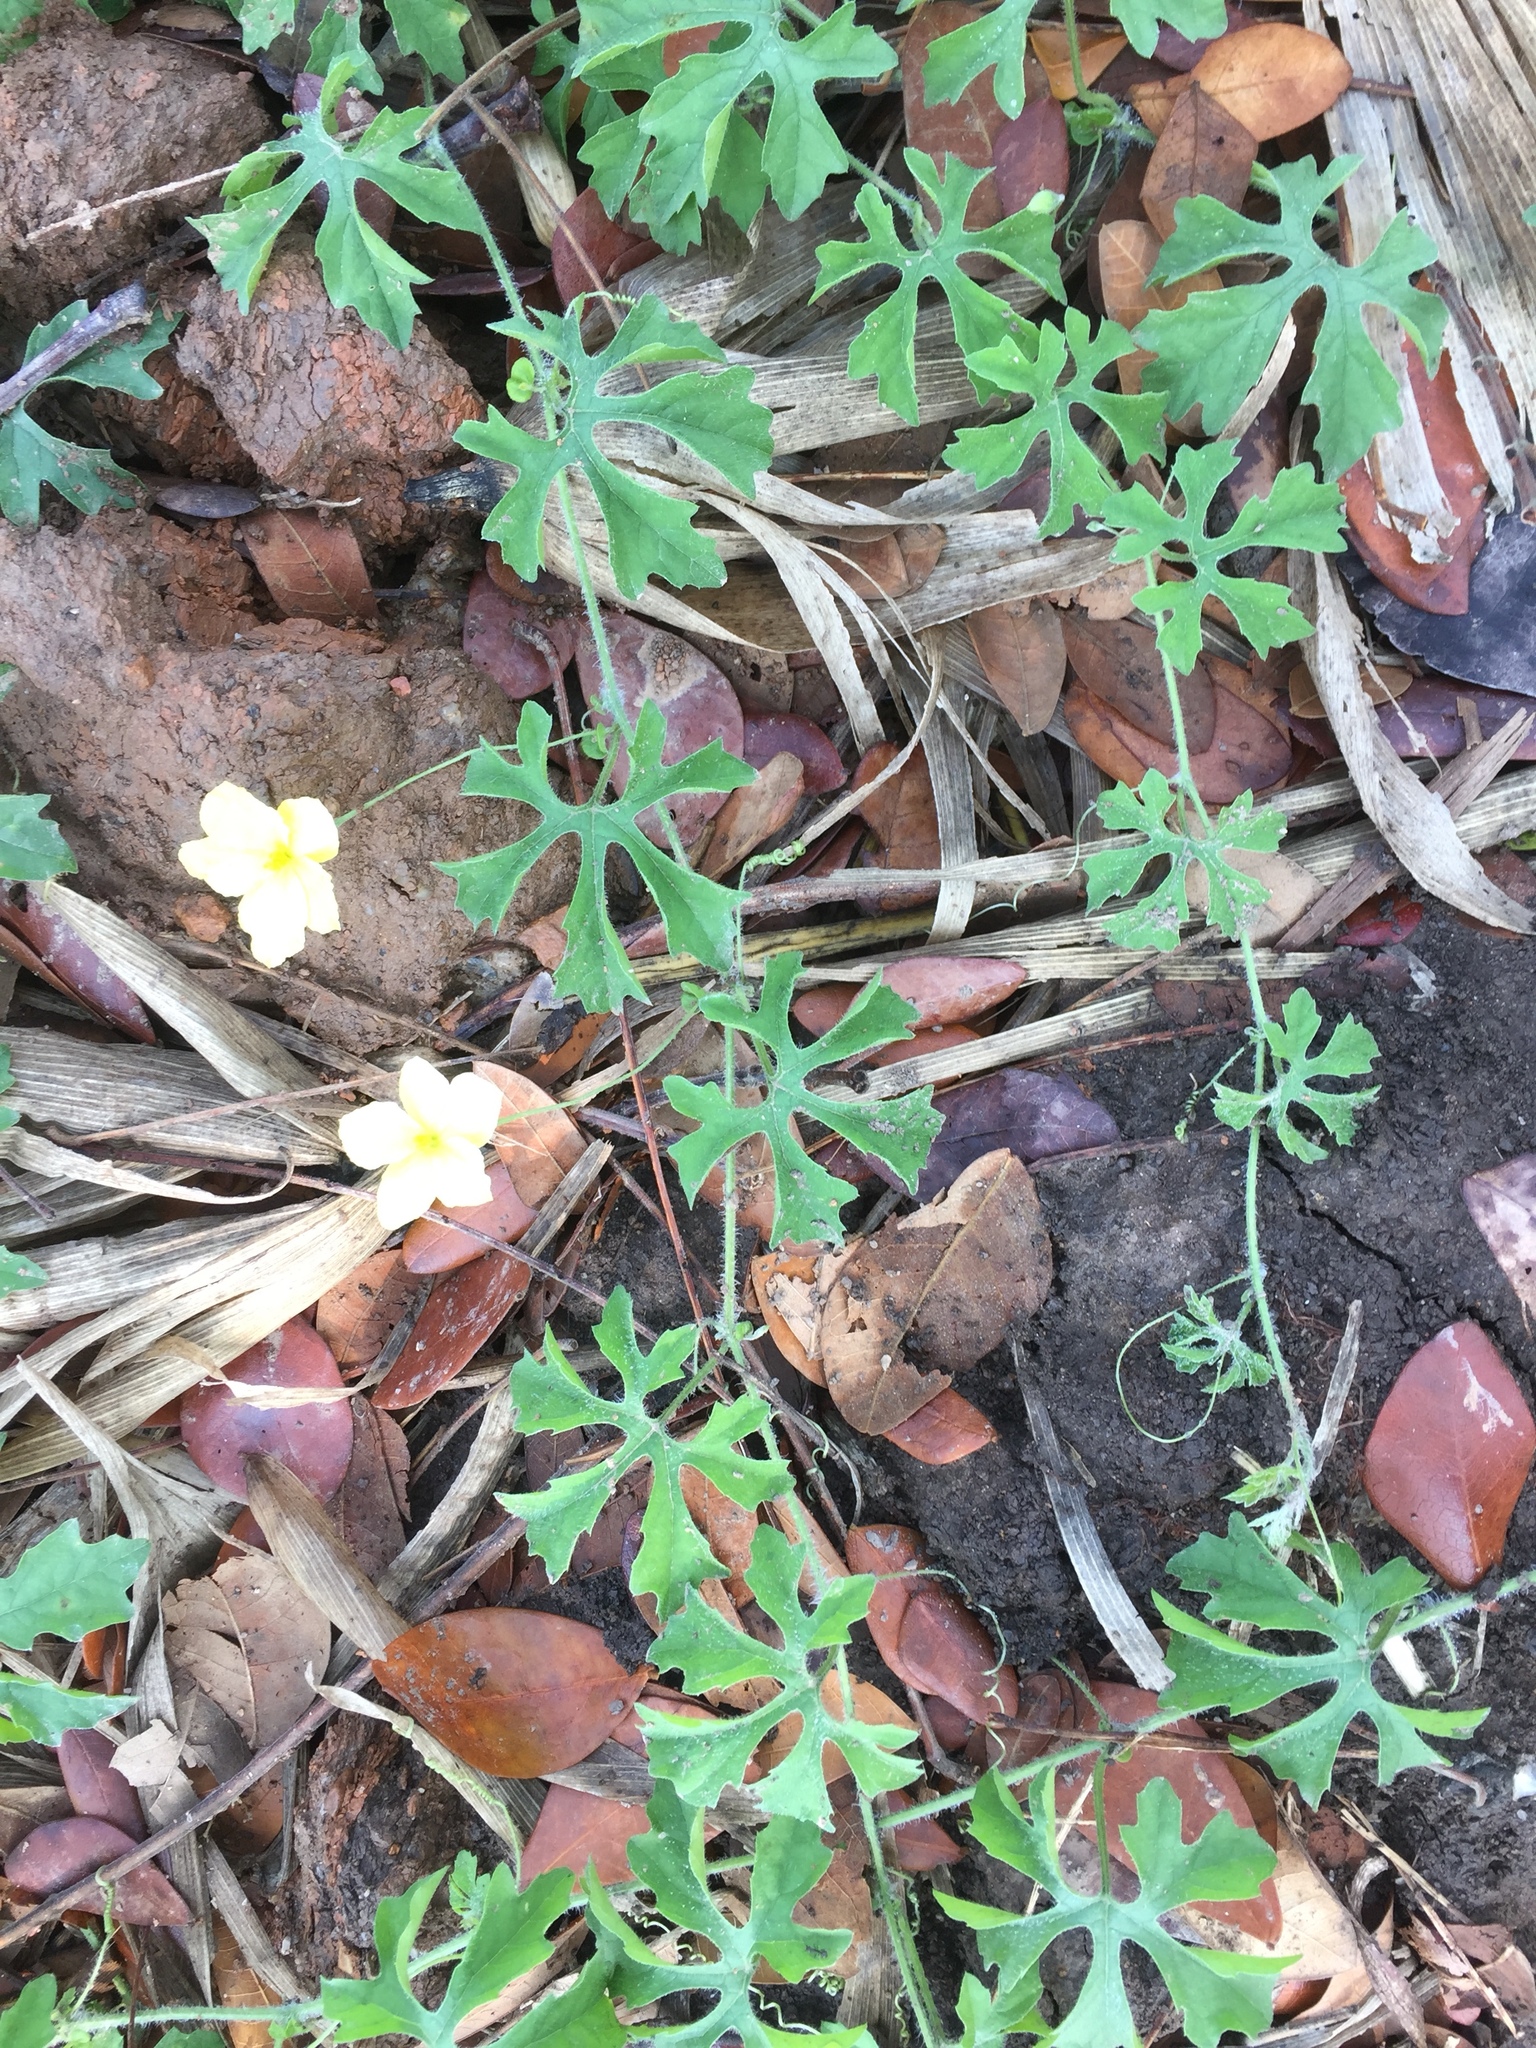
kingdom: Plantae
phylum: Tracheophyta
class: Magnoliopsida
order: Cucurbitales
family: Cucurbitaceae
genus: Momordica
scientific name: Momordica charantia
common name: Balsampear
